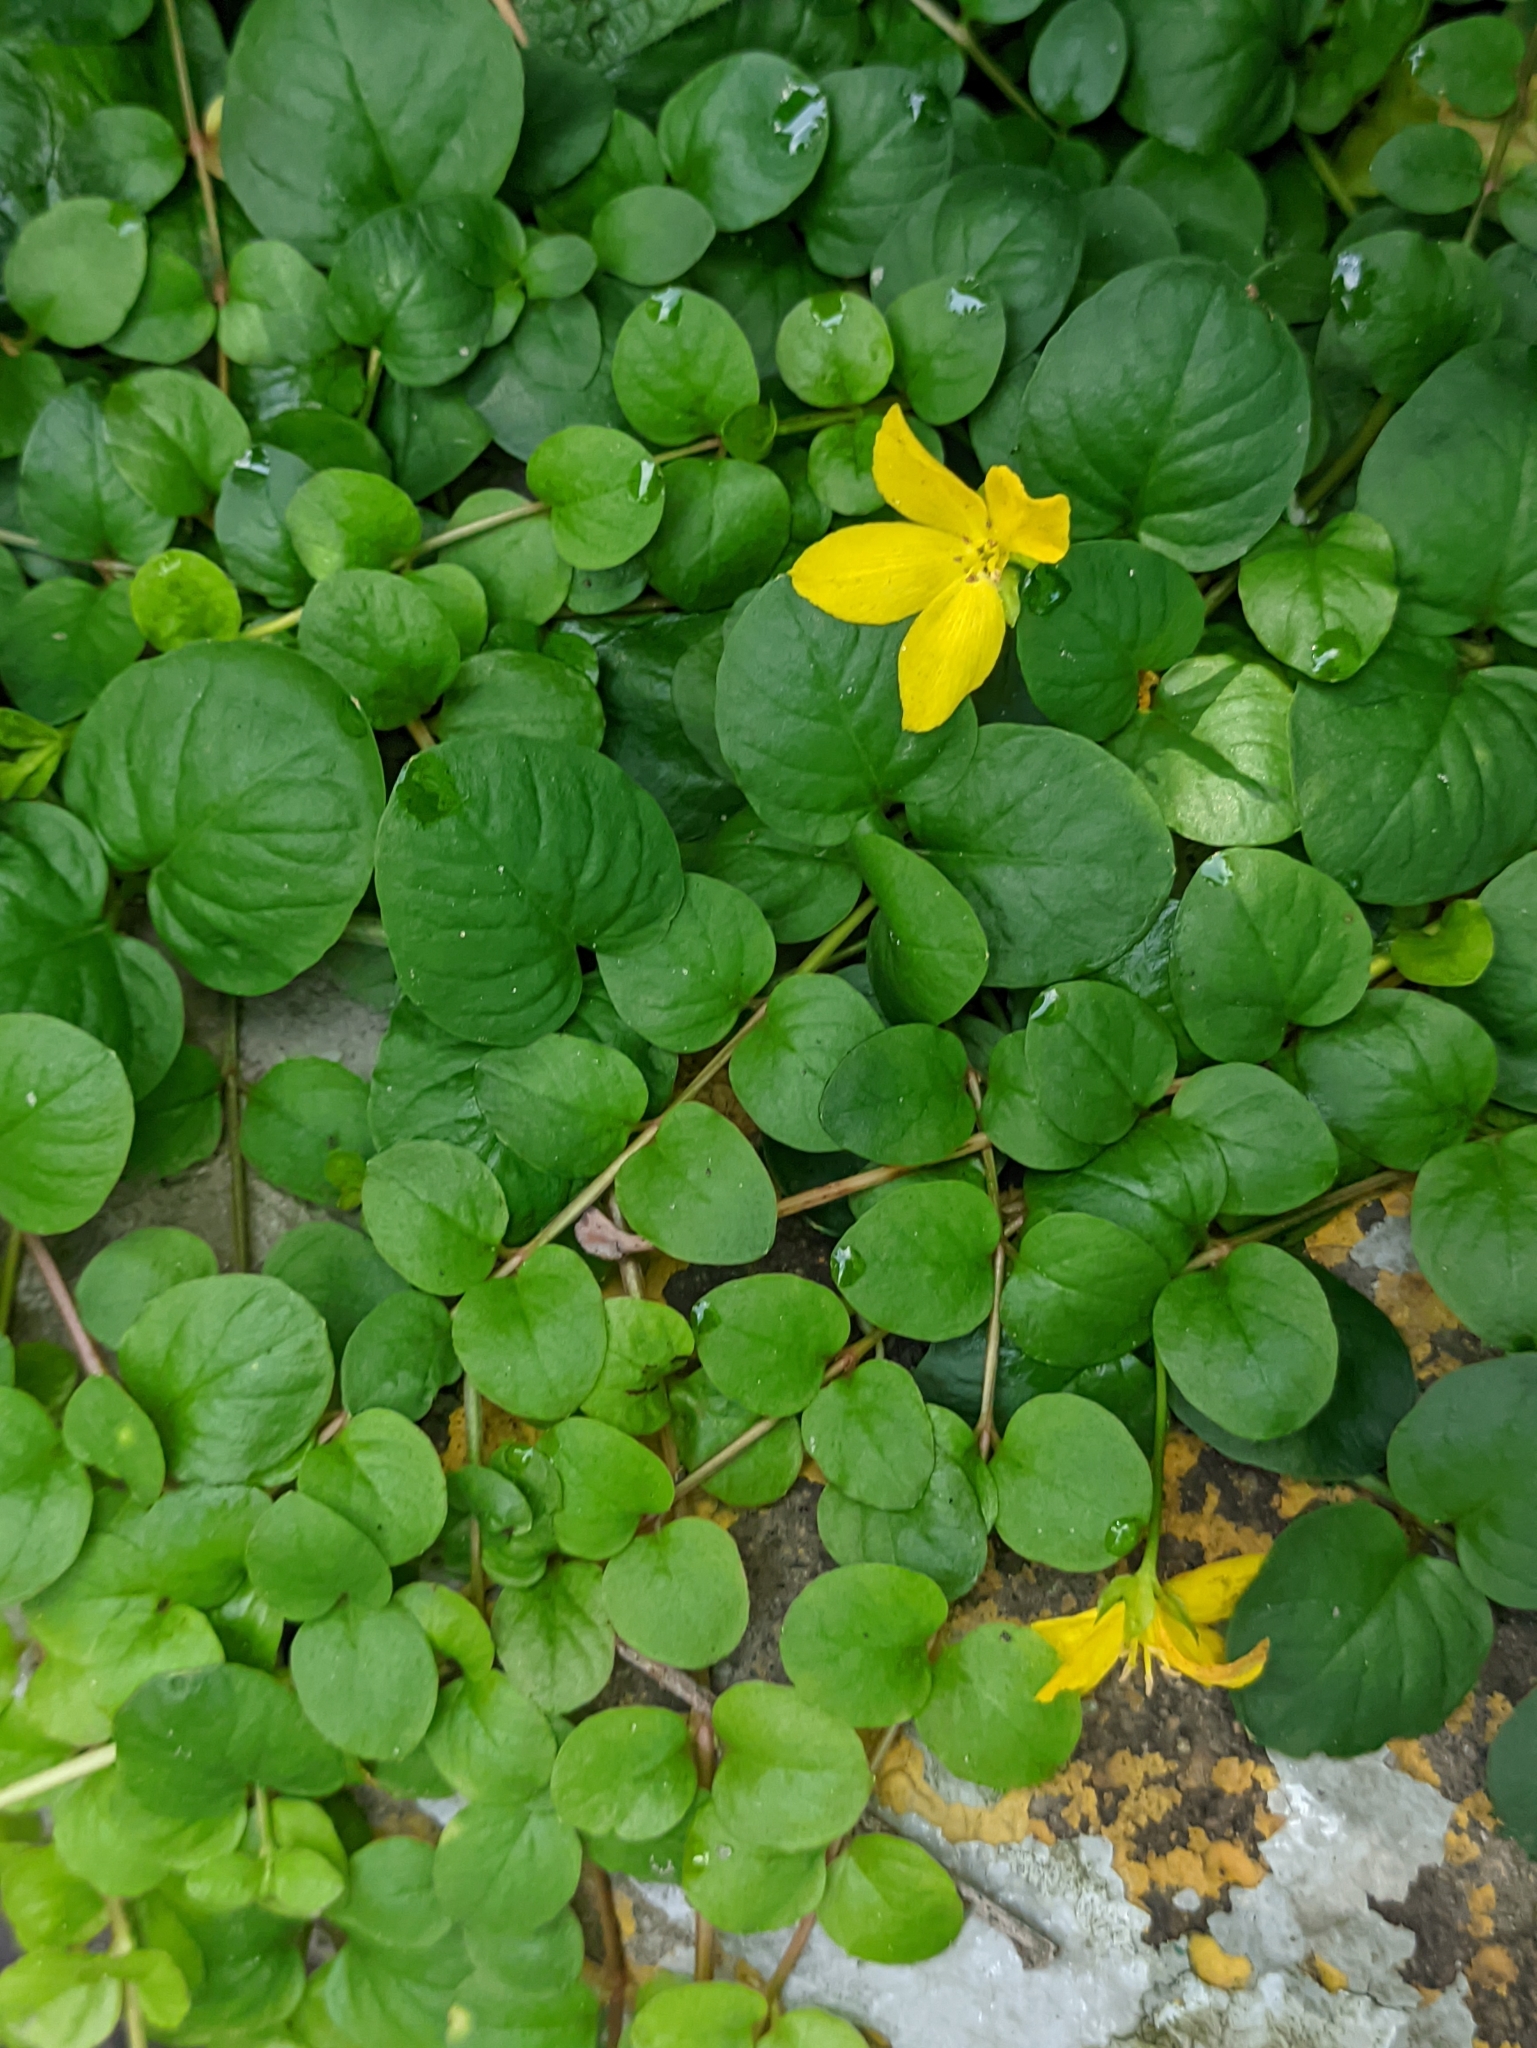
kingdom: Plantae
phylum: Tracheophyta
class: Magnoliopsida
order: Ericales
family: Primulaceae
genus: Lysimachia
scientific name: Lysimachia nummularia
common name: Moneywort
